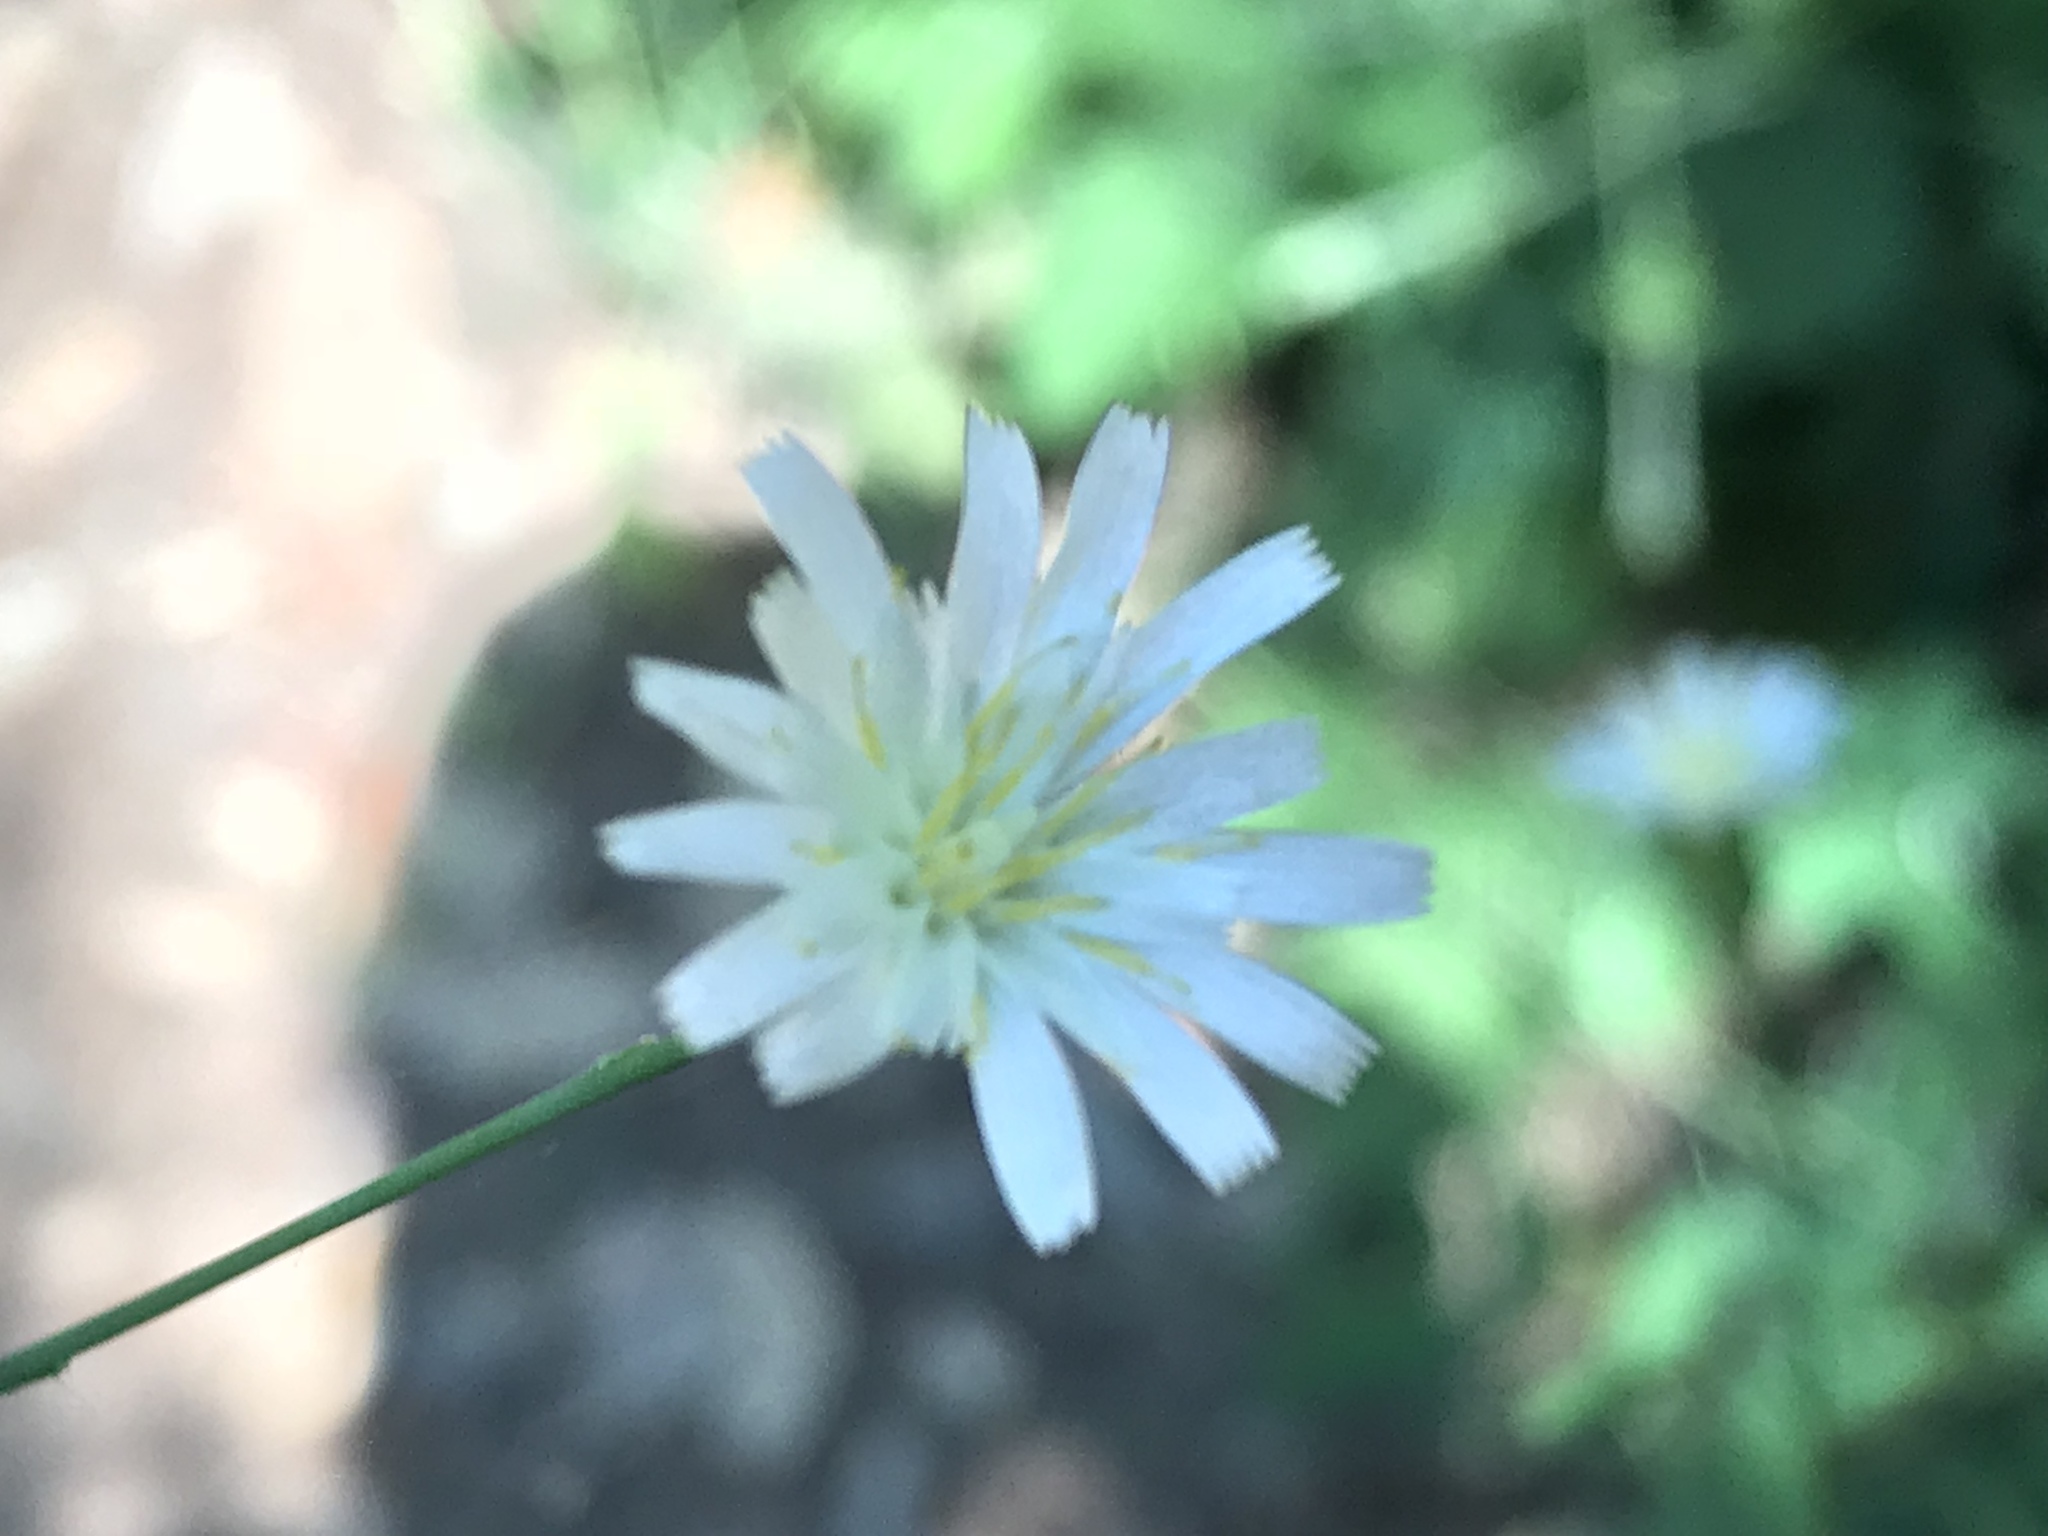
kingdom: Plantae
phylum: Tracheophyta
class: Magnoliopsida
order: Asterales
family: Asteraceae
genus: Hieracium
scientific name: Hieracium albiflorum
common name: White hawkweed
